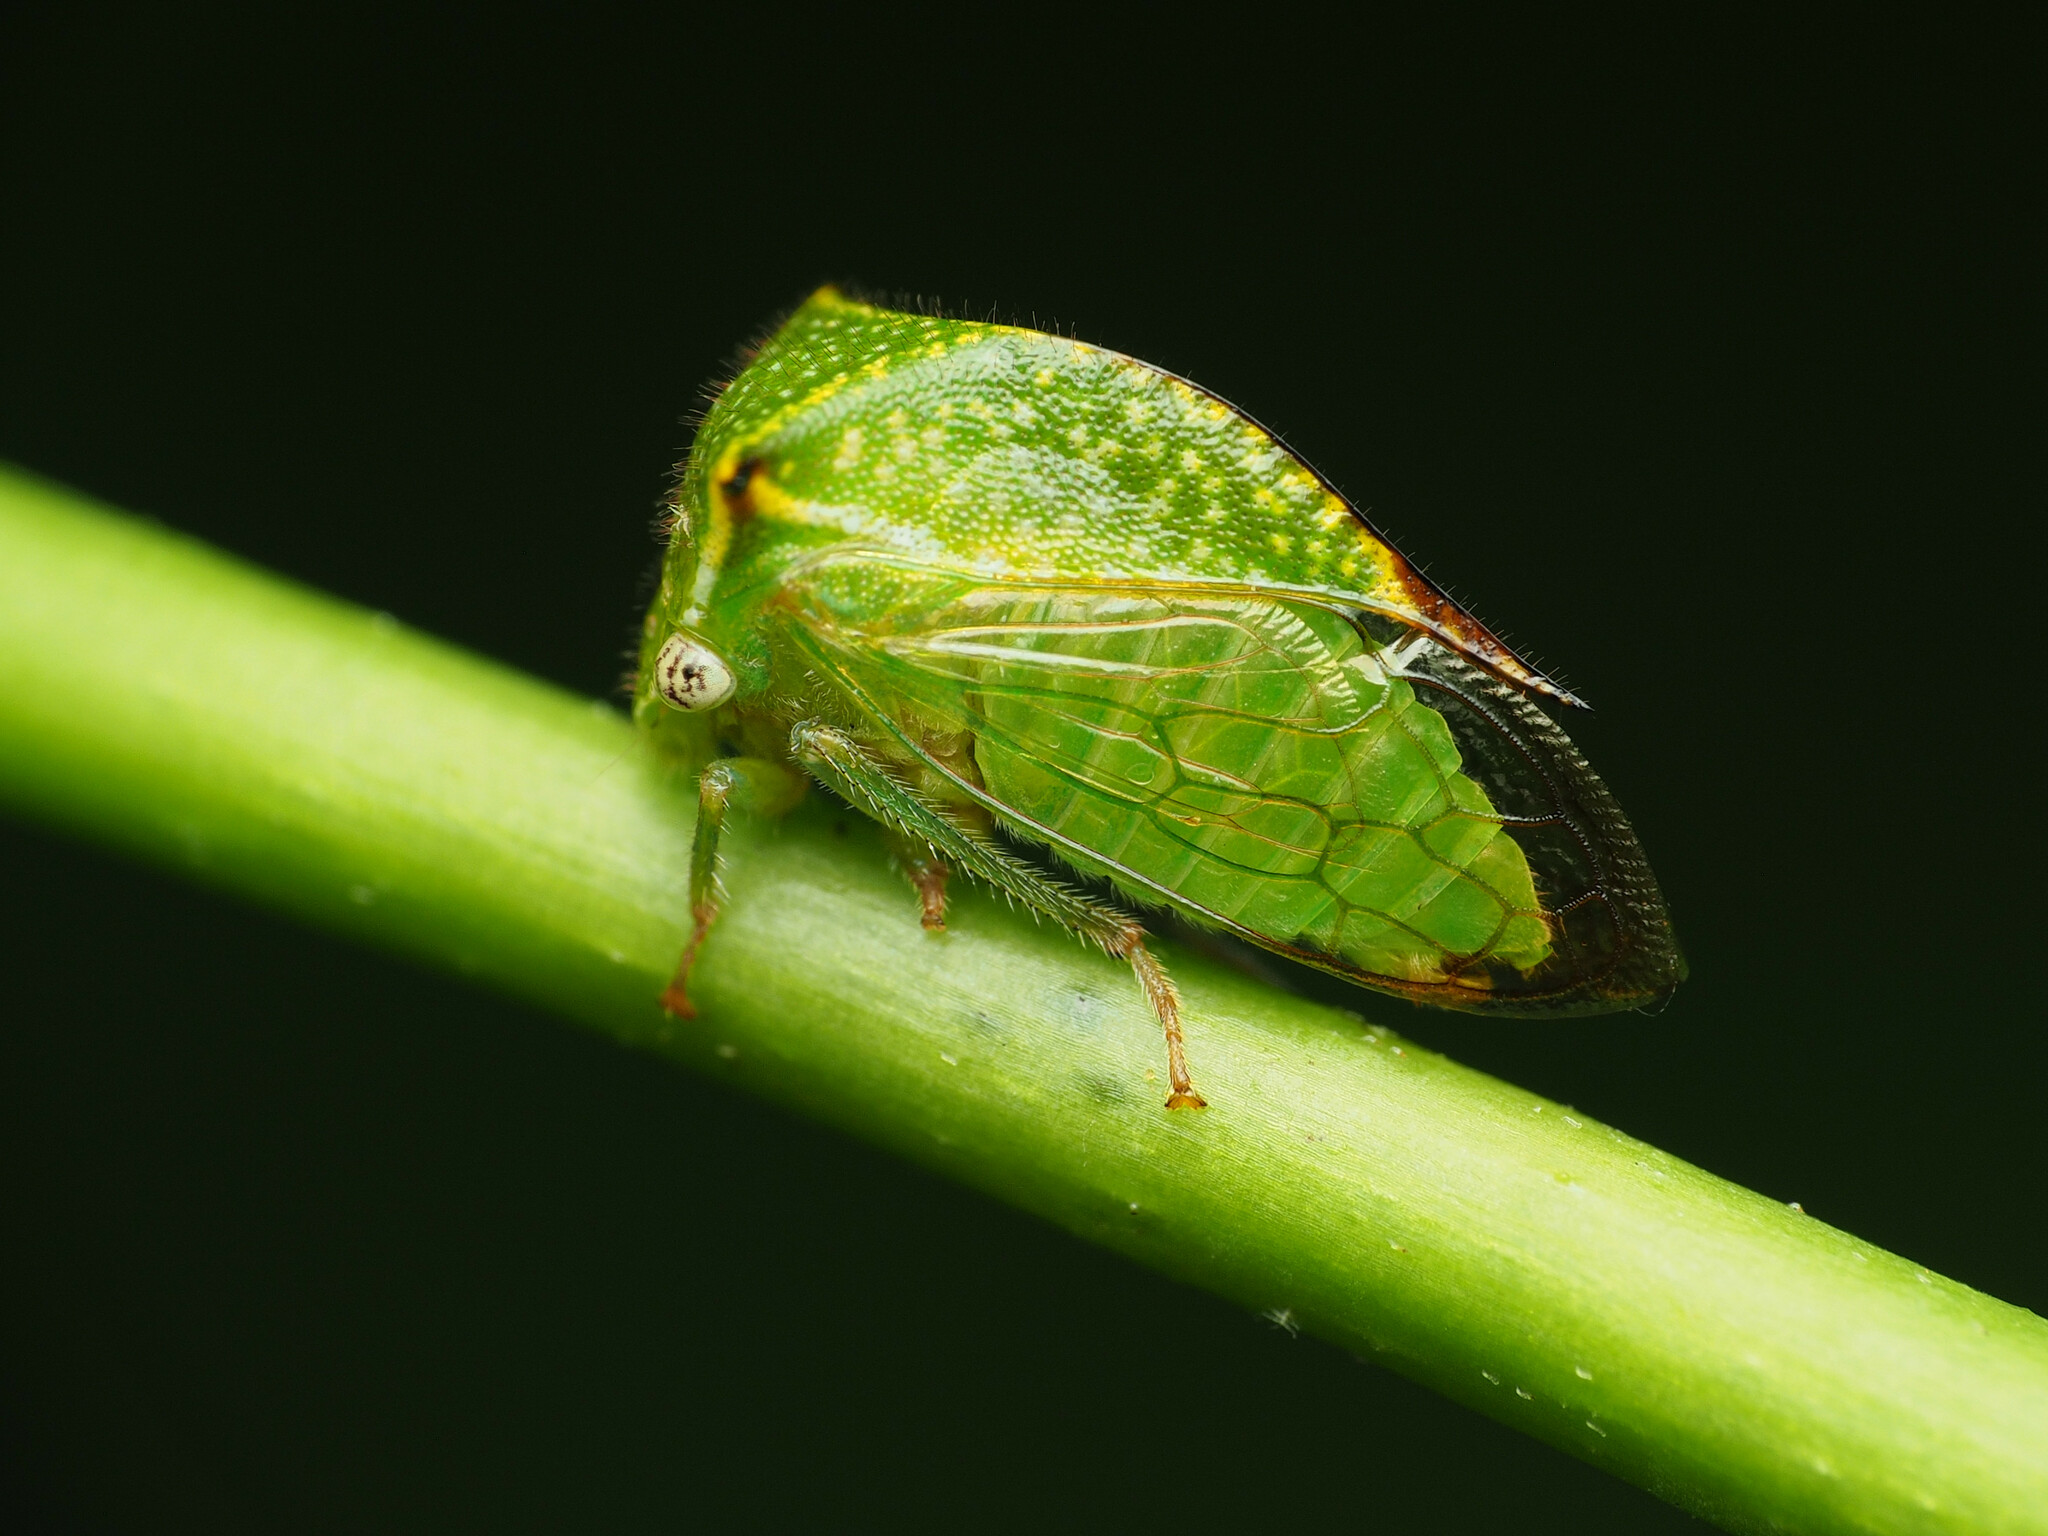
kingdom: Animalia
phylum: Arthropoda
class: Insecta
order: Hemiptera
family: Membracidae
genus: Hadrophallus
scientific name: Hadrophallus
